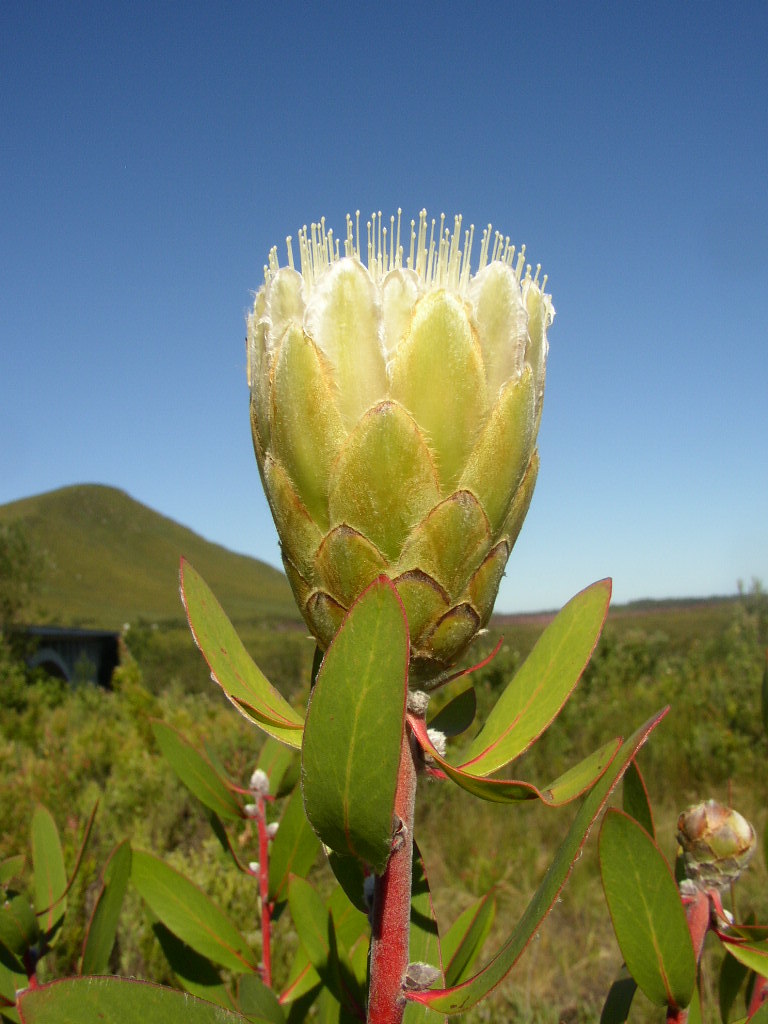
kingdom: Plantae
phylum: Tracheophyta
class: Magnoliopsida
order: Proteales
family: Proteaceae
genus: Protea
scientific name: Protea mundii
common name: Forest sugarbush
